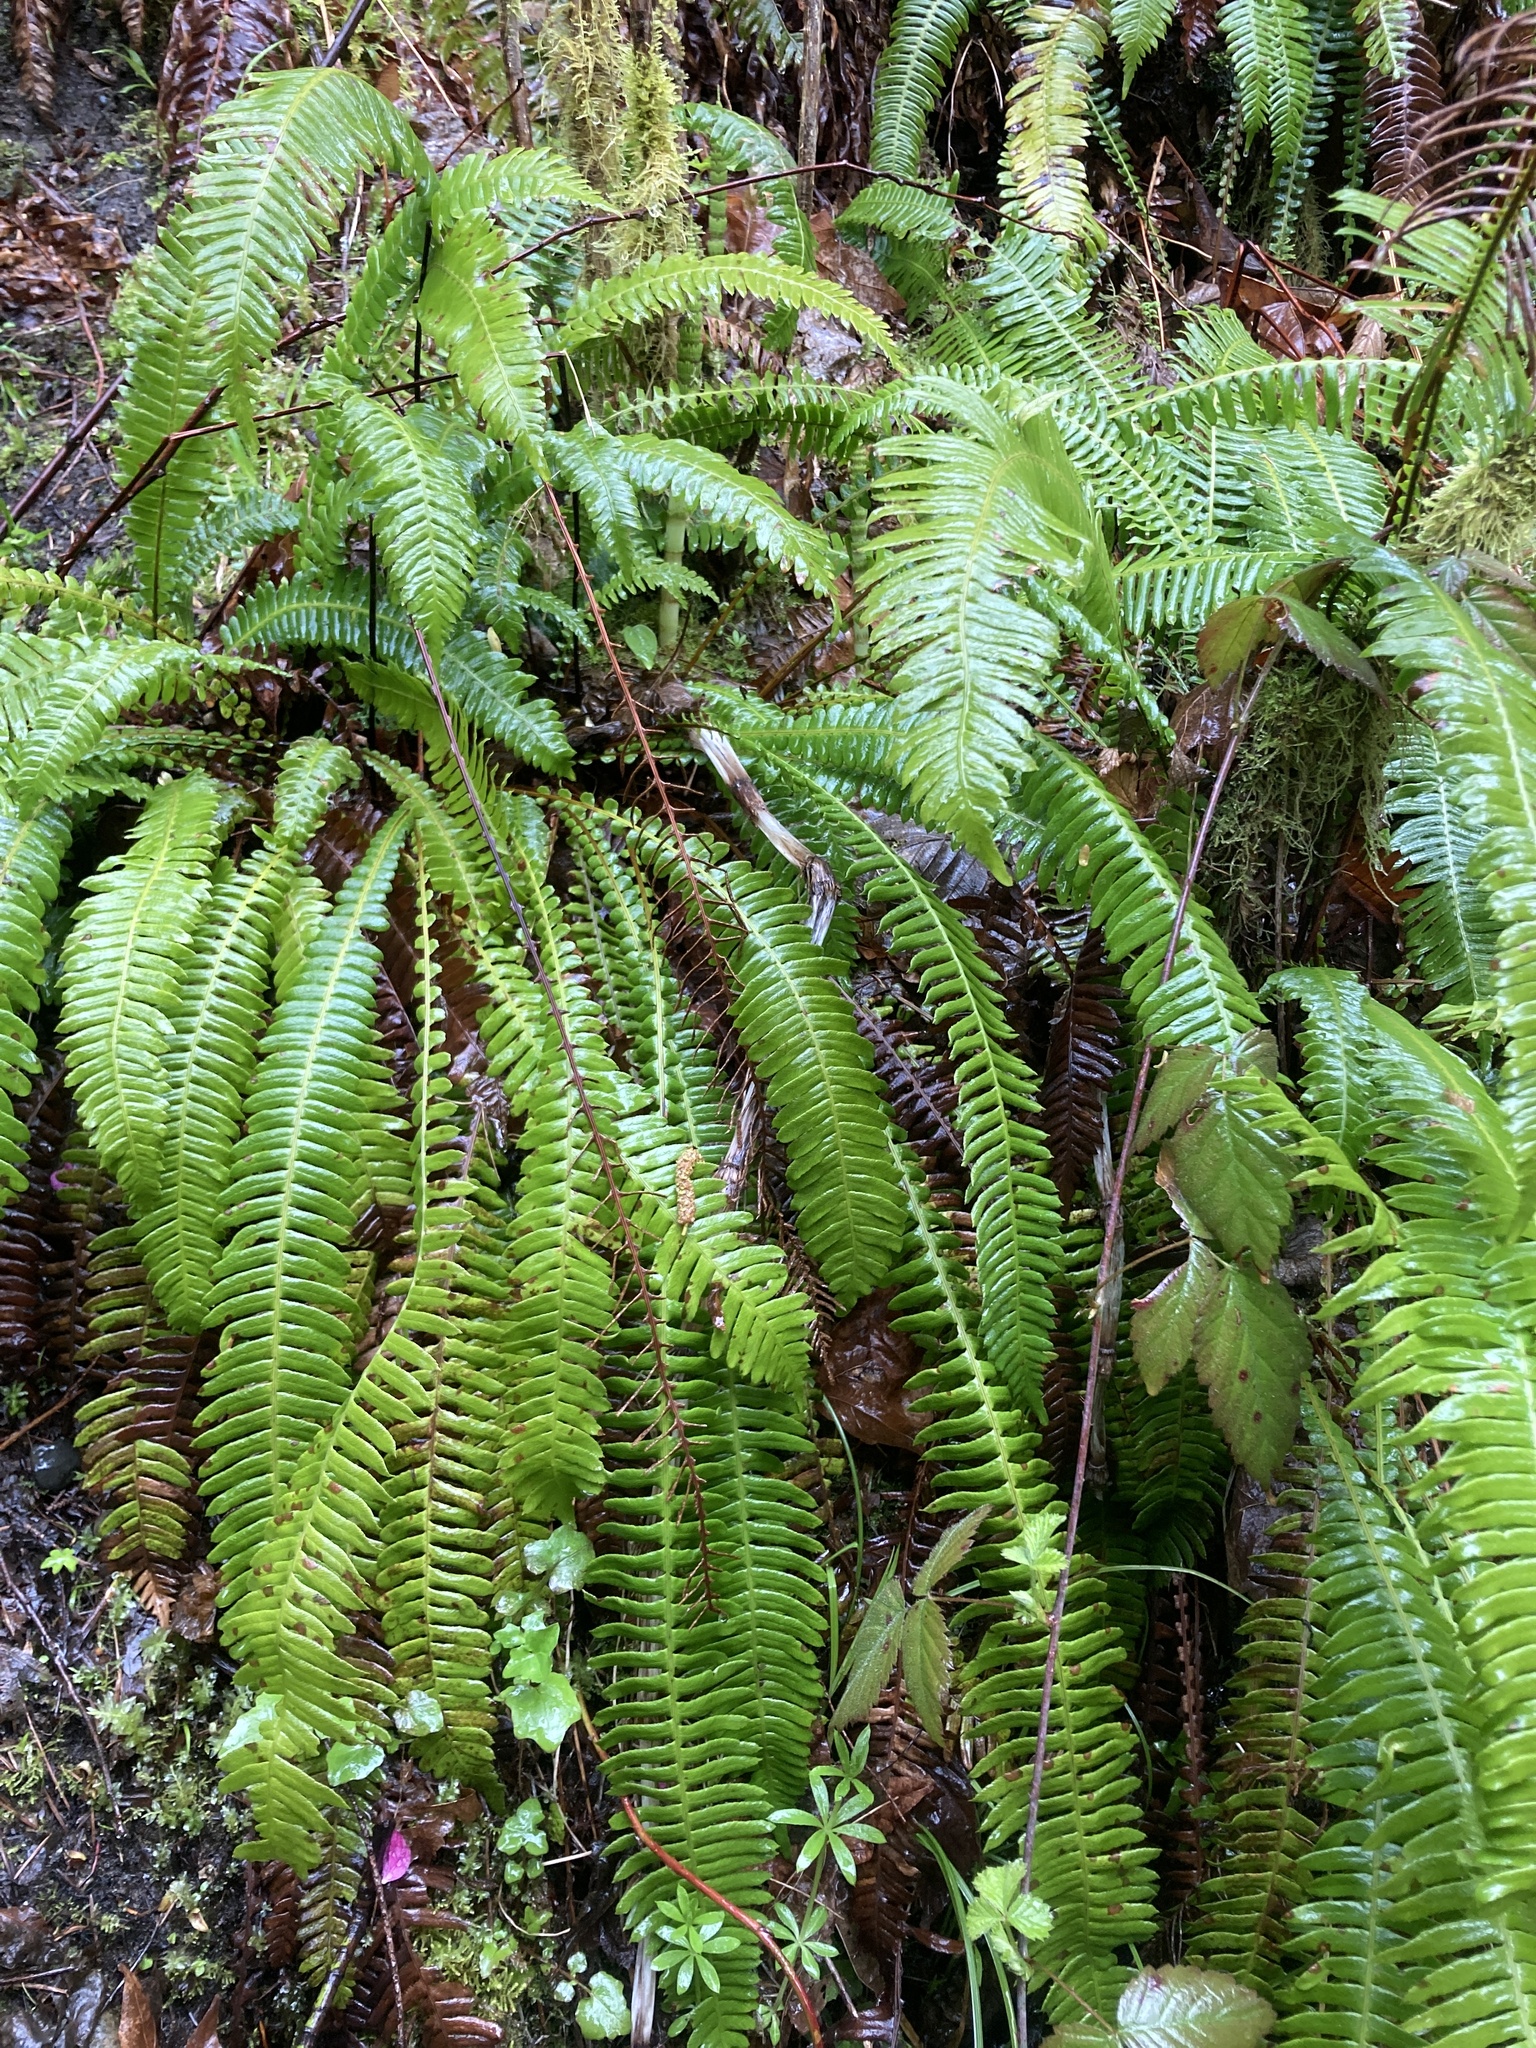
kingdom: Plantae
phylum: Tracheophyta
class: Polypodiopsida
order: Polypodiales
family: Blechnaceae
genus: Struthiopteris
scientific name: Struthiopteris spicant
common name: Deer fern
